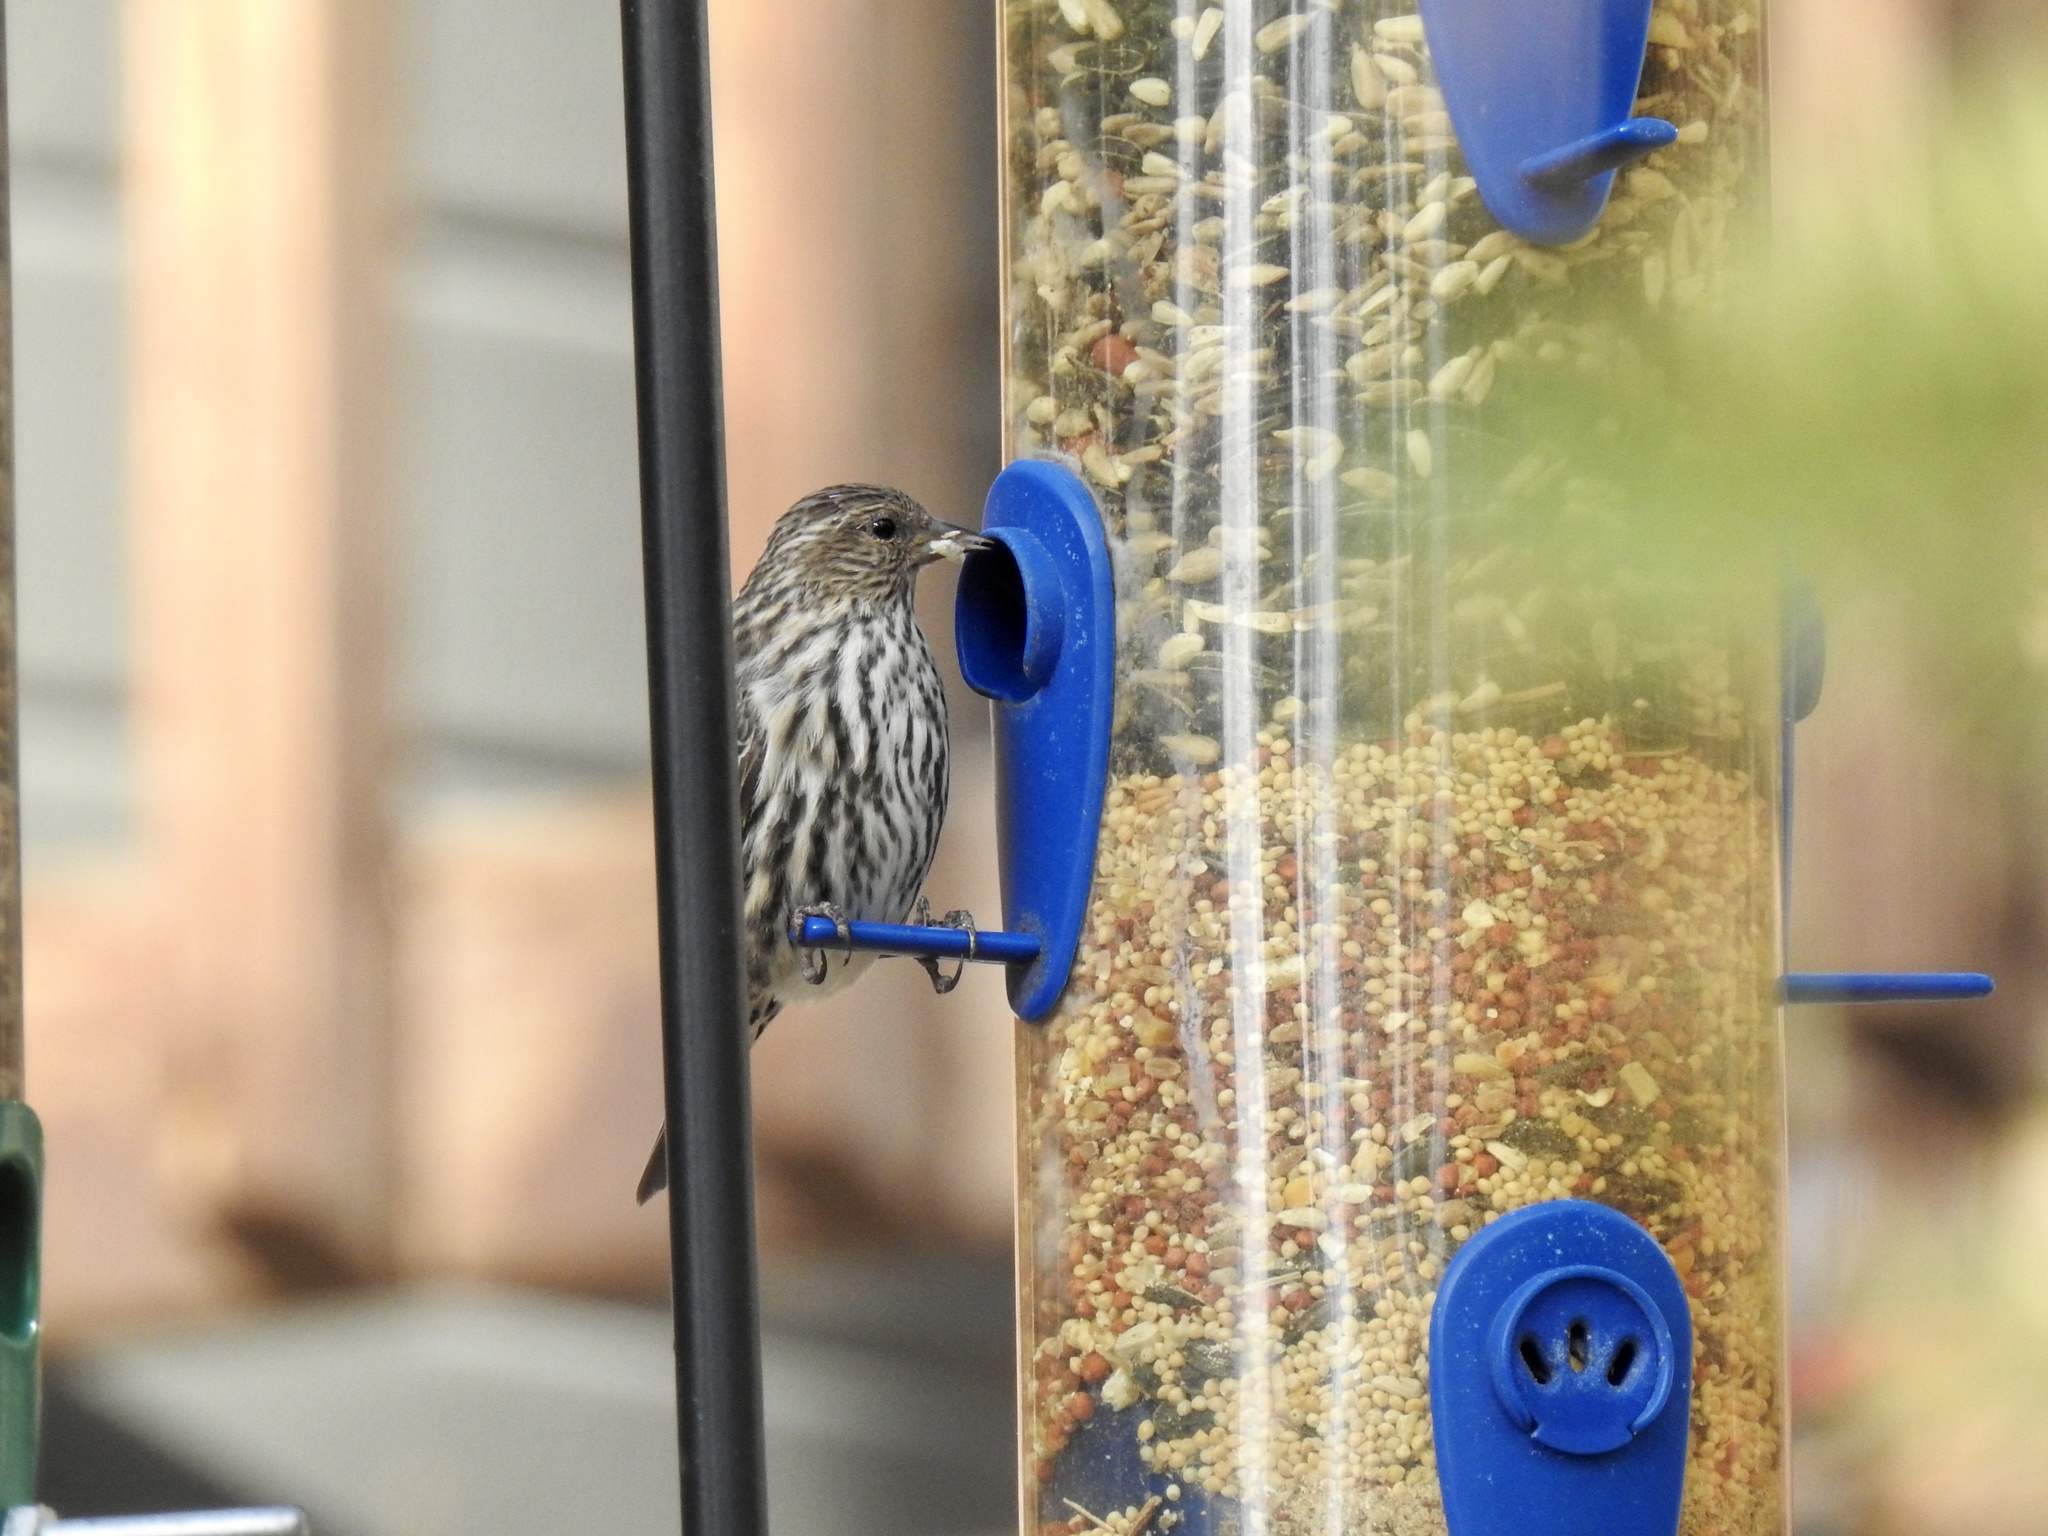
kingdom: Animalia
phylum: Chordata
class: Aves
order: Passeriformes
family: Fringillidae
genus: Spinus
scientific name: Spinus pinus
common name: Pine siskin
